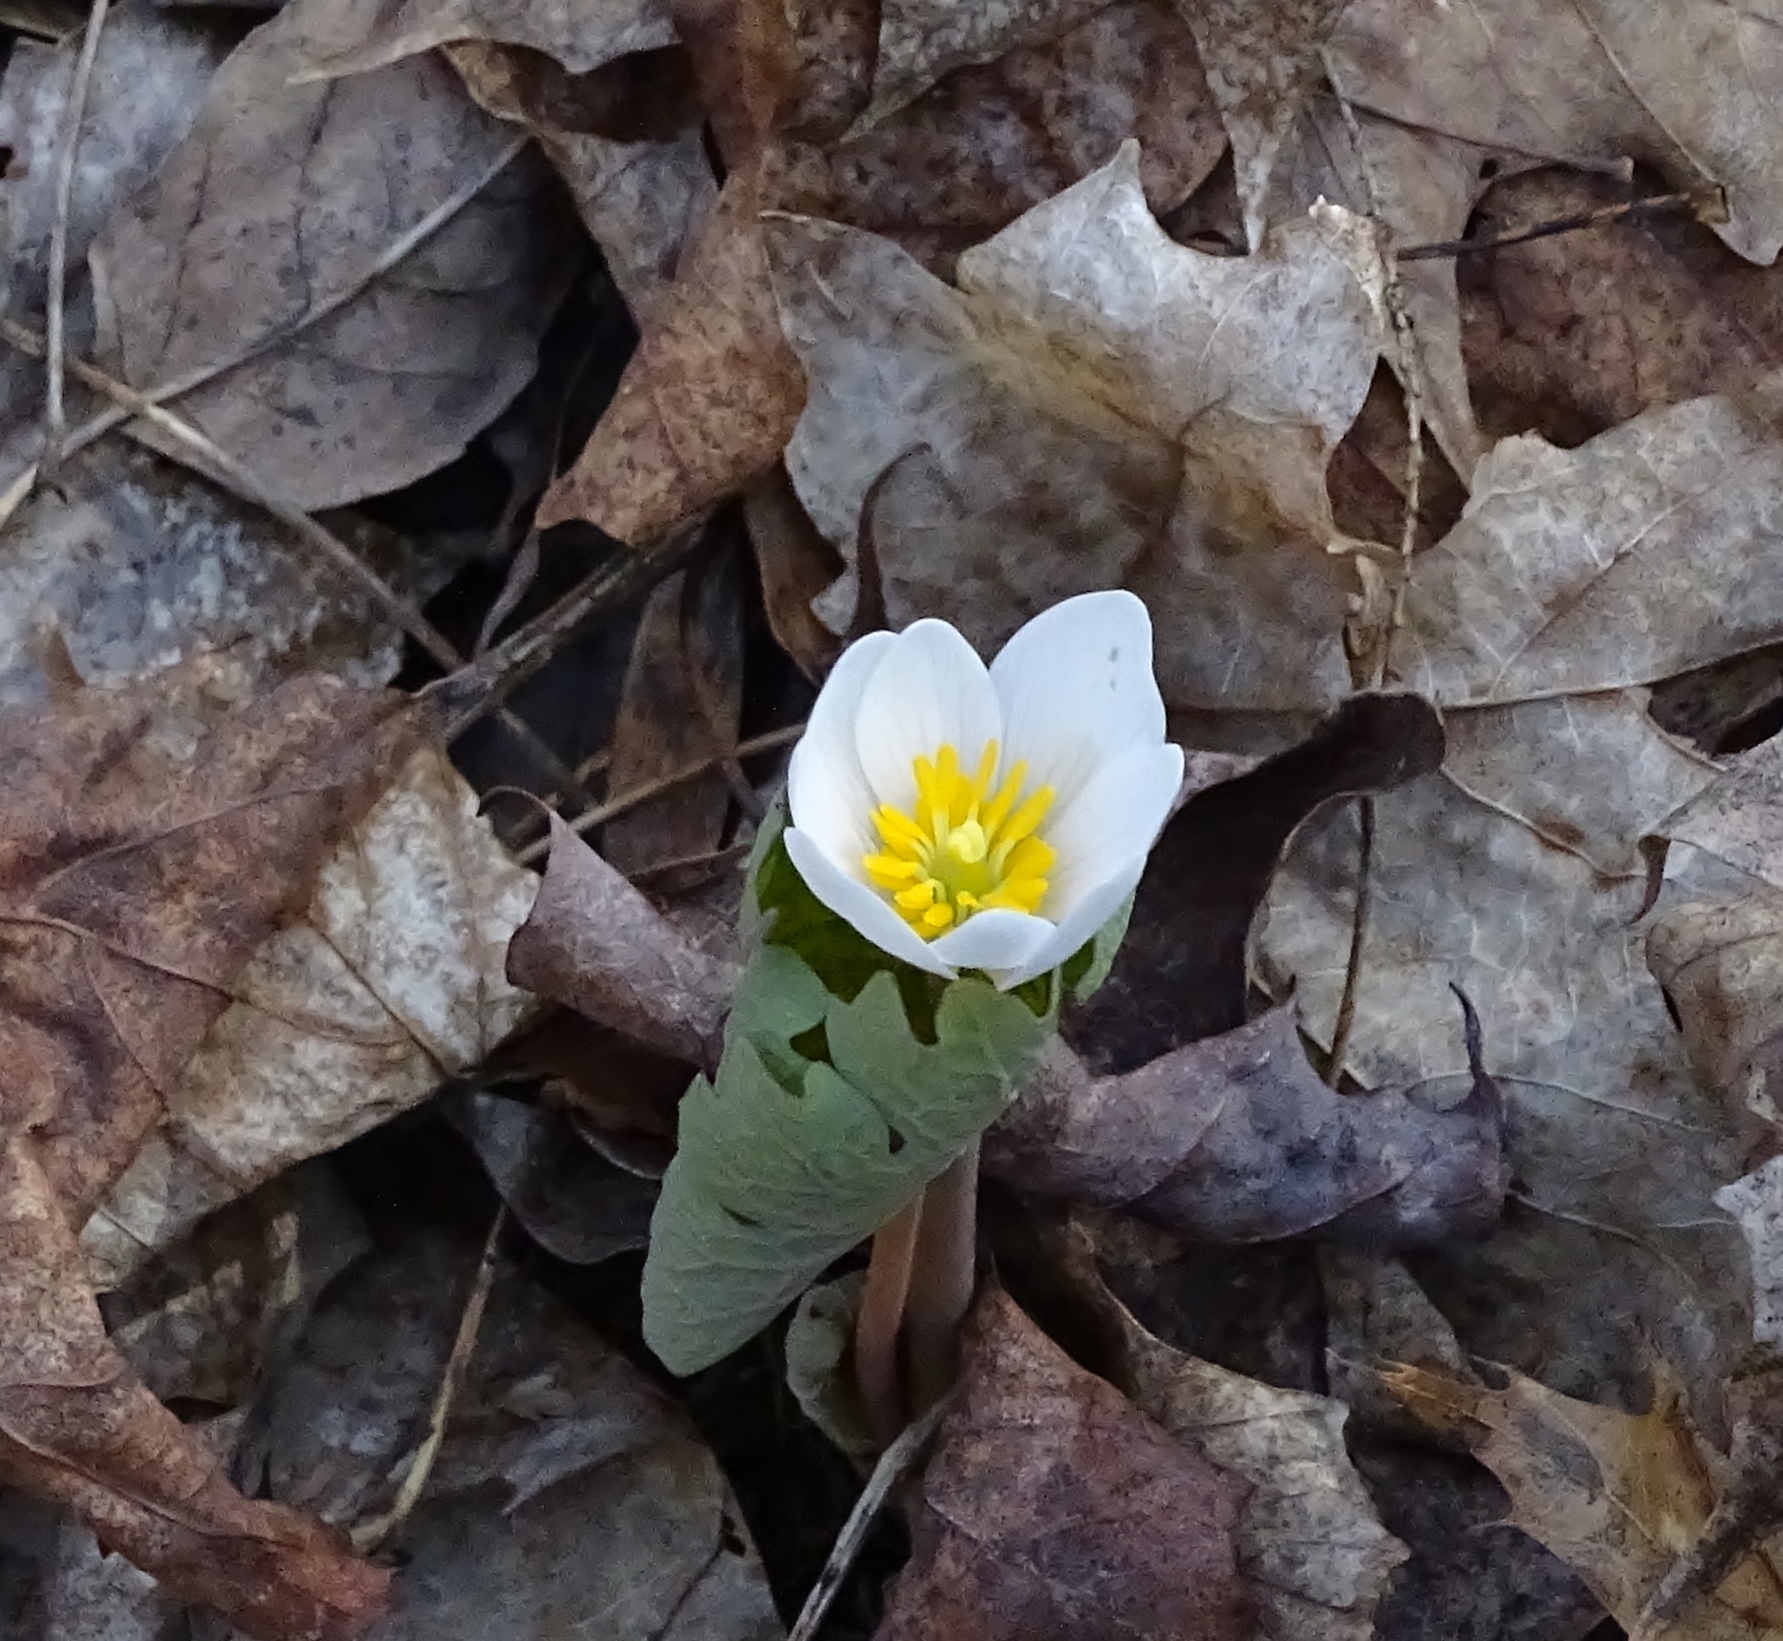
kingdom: Plantae
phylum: Tracheophyta
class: Magnoliopsida
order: Ranunculales
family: Papaveraceae
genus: Sanguinaria
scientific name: Sanguinaria canadensis
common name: Bloodroot
